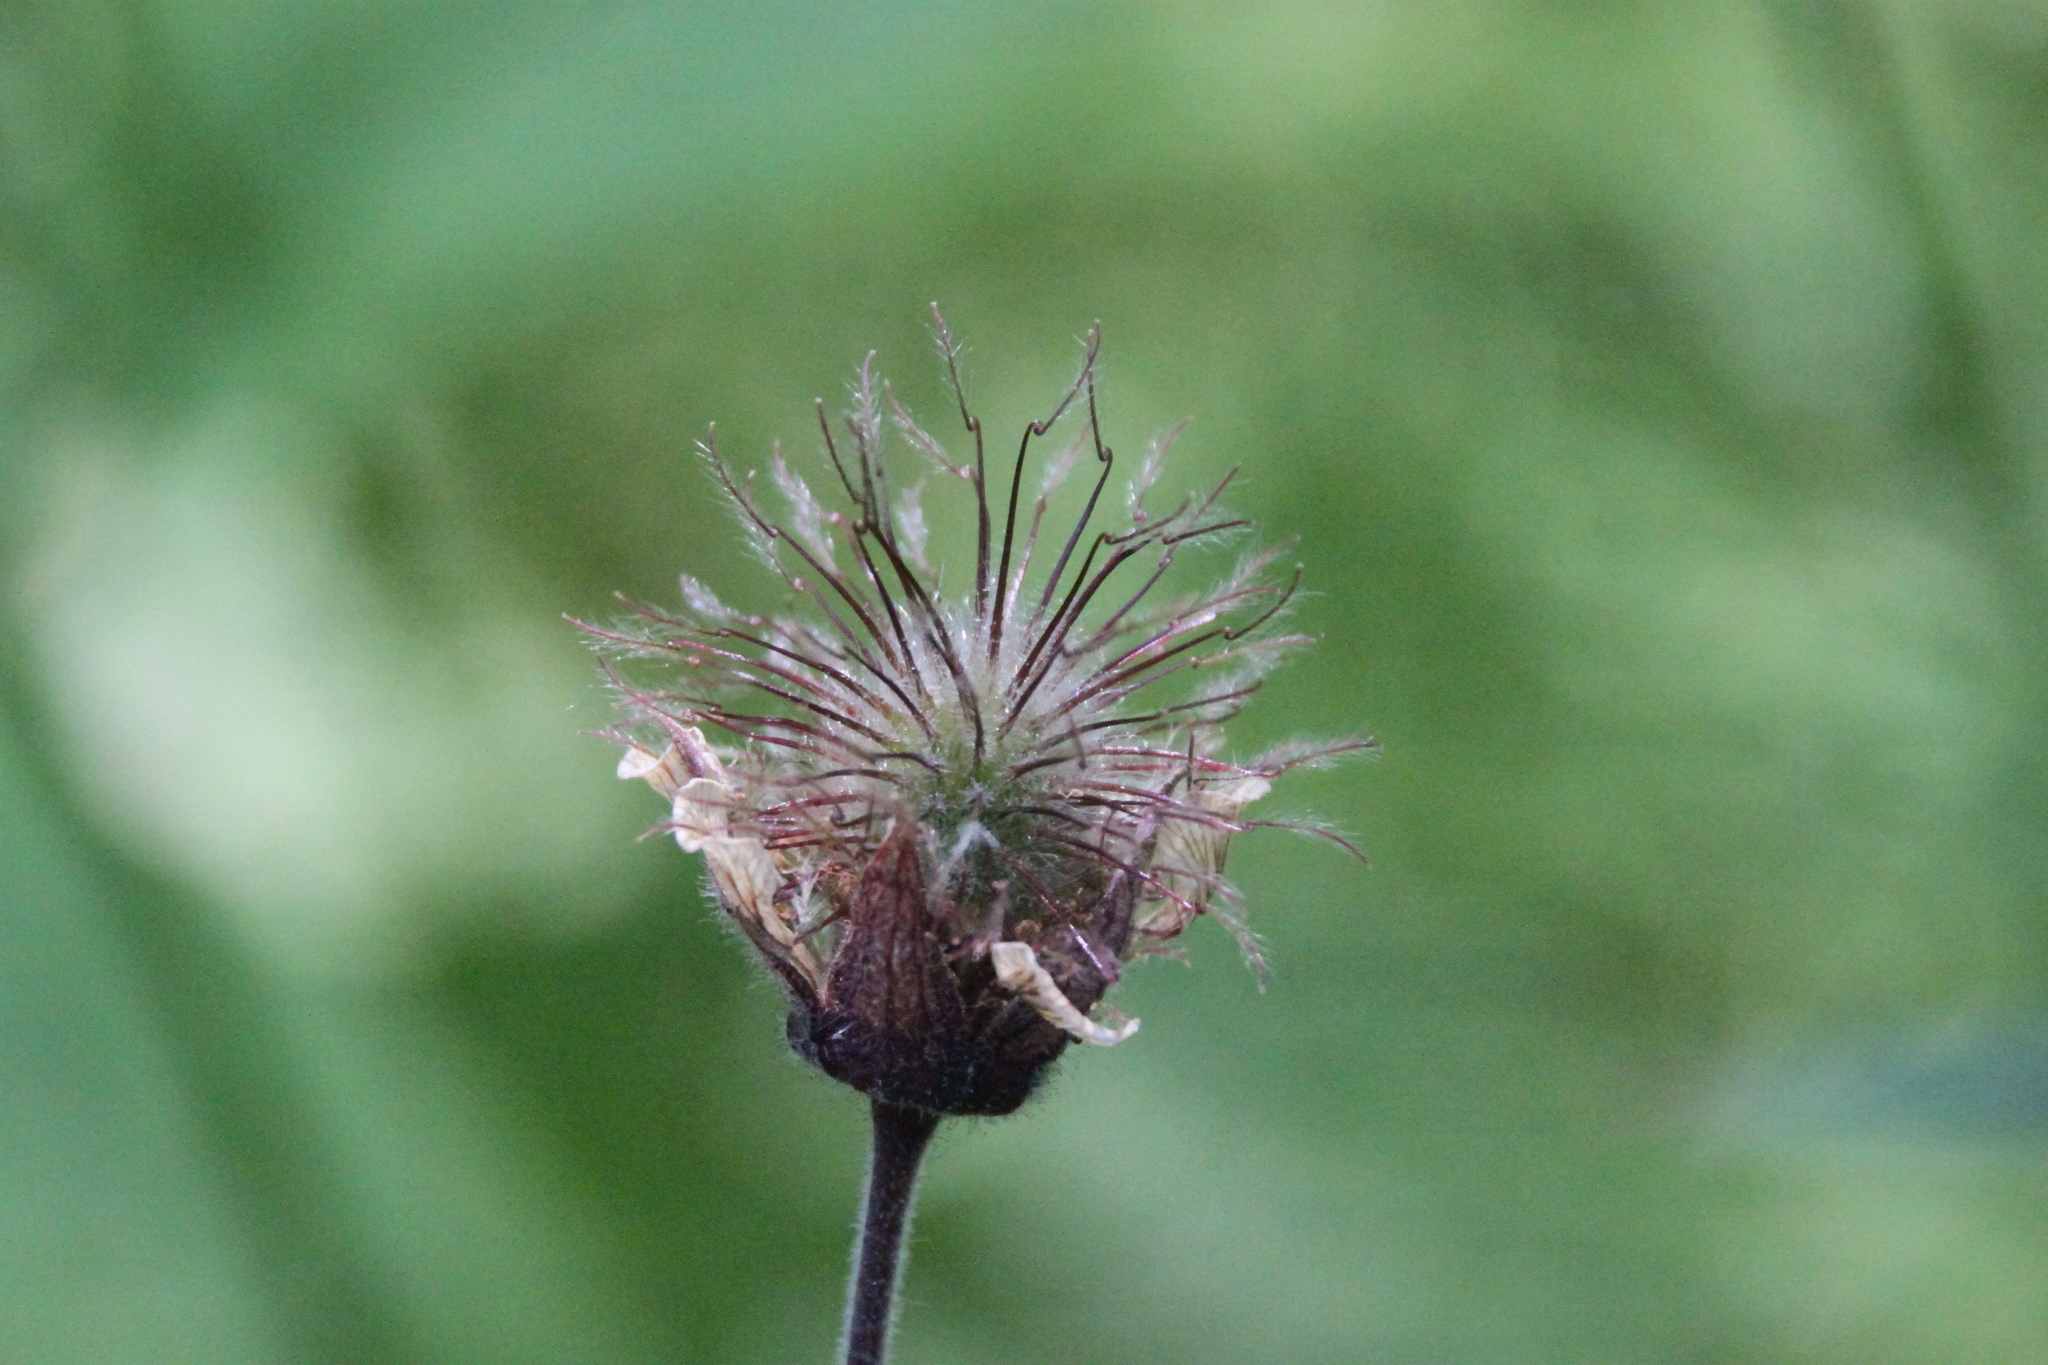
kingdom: Plantae
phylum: Tracheophyta
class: Magnoliopsida
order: Rosales
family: Rosaceae
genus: Geum
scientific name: Geum rivale
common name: Water avens
